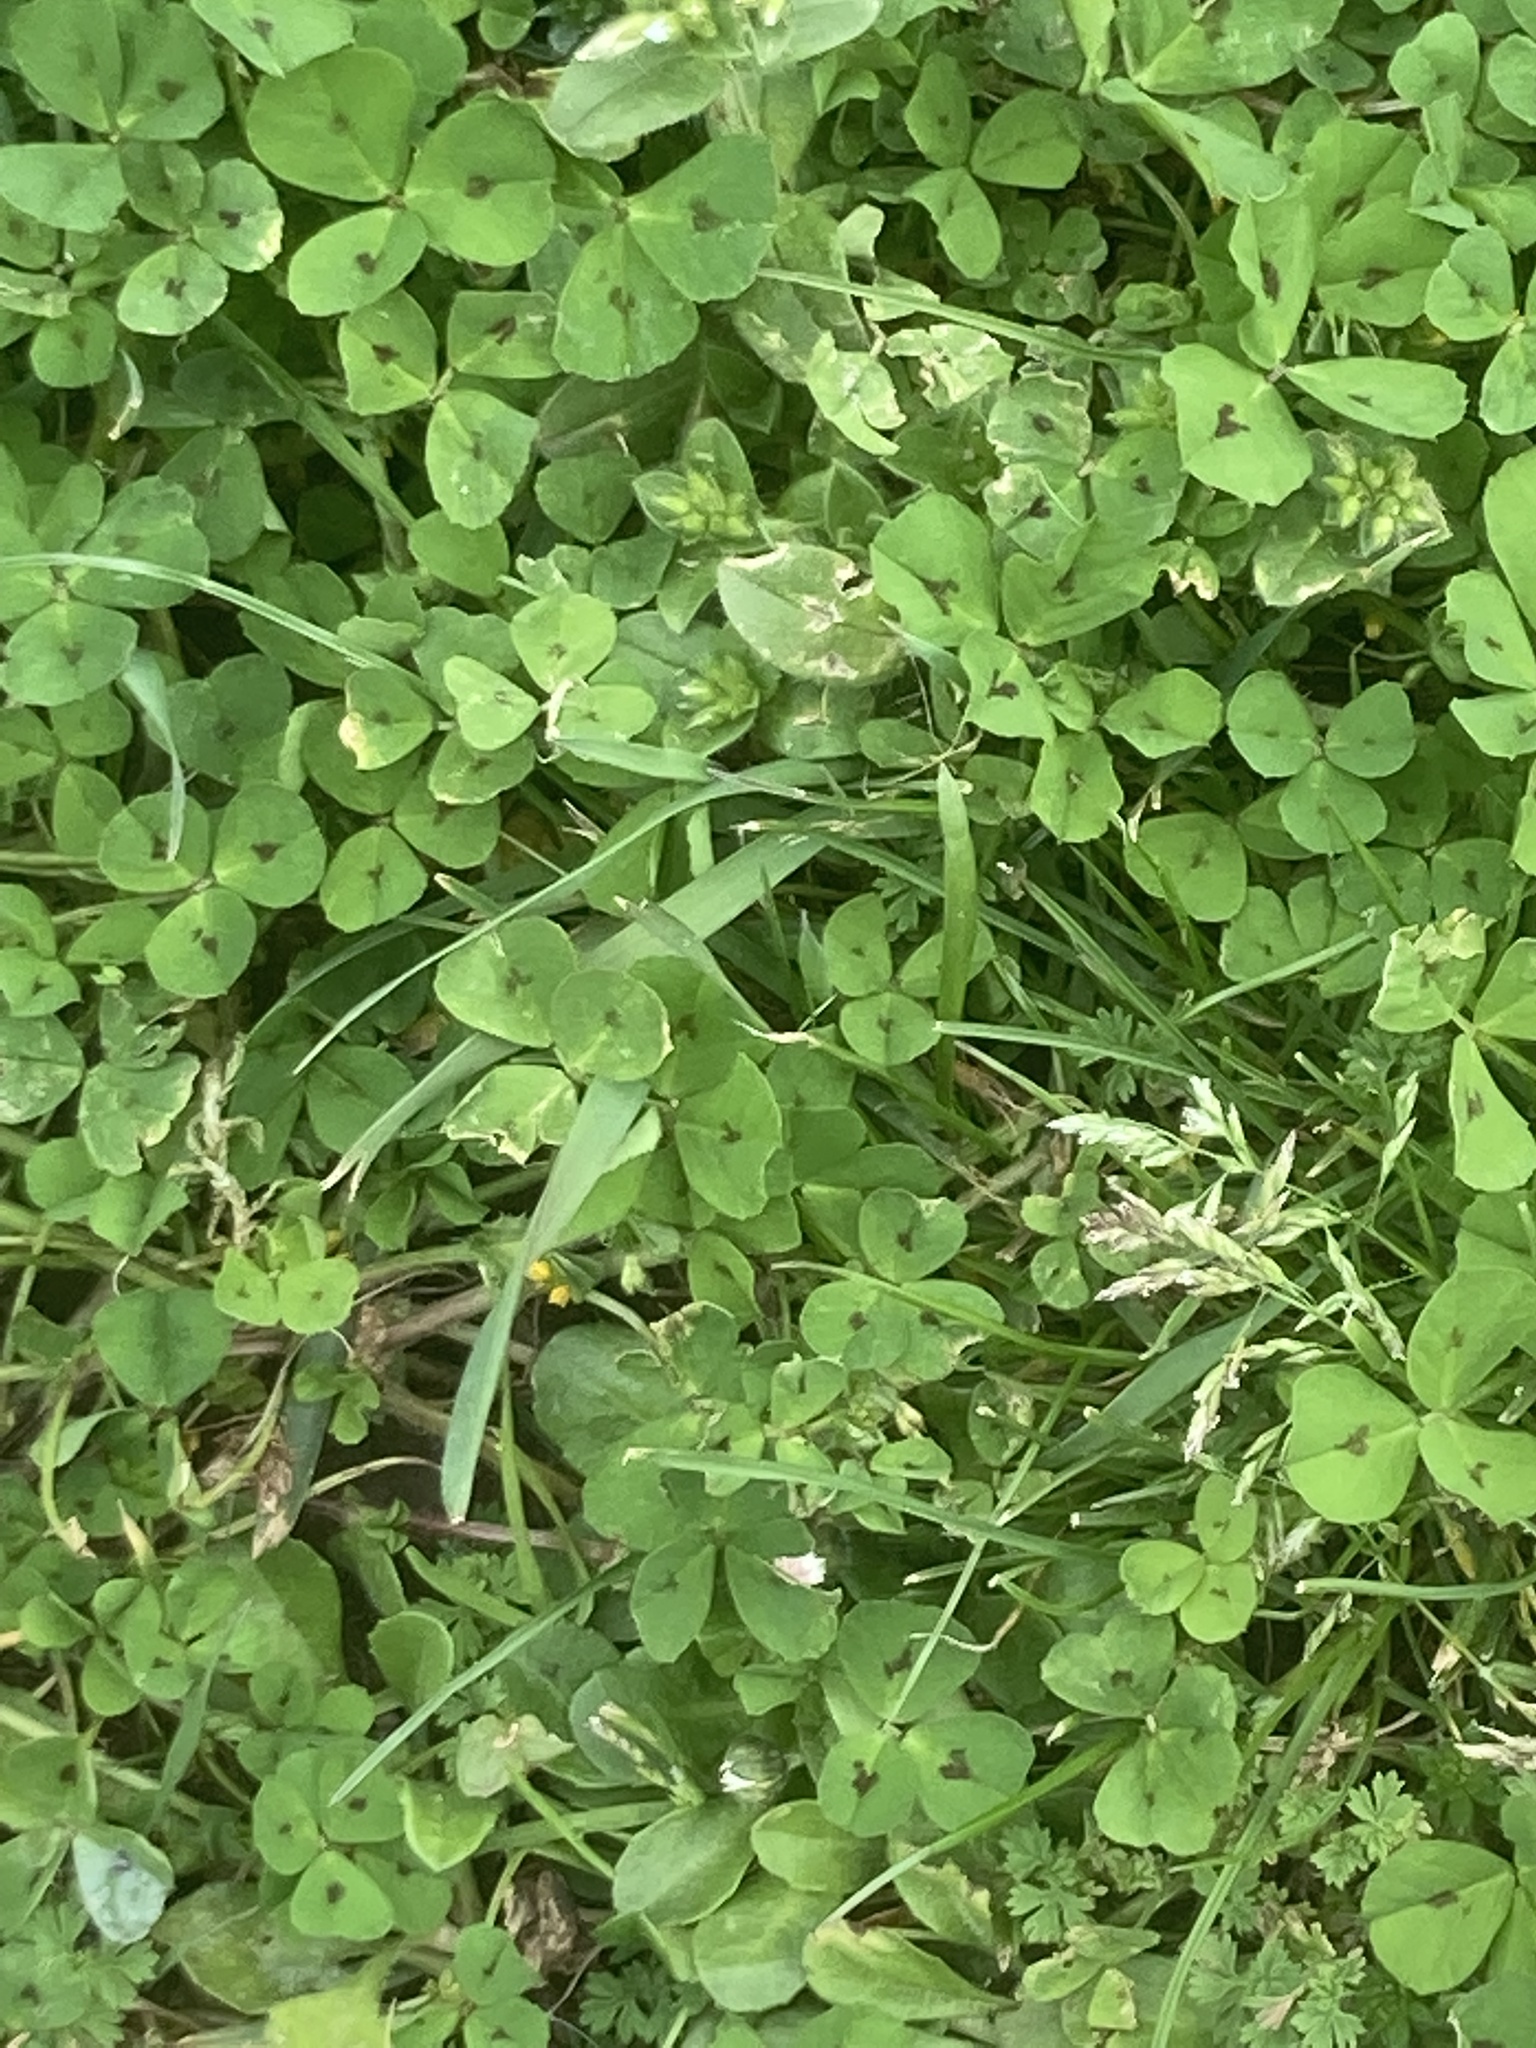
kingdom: Plantae
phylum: Tracheophyta
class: Magnoliopsida
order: Fabales
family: Fabaceae
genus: Medicago
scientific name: Medicago arabica
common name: Spotted medick
